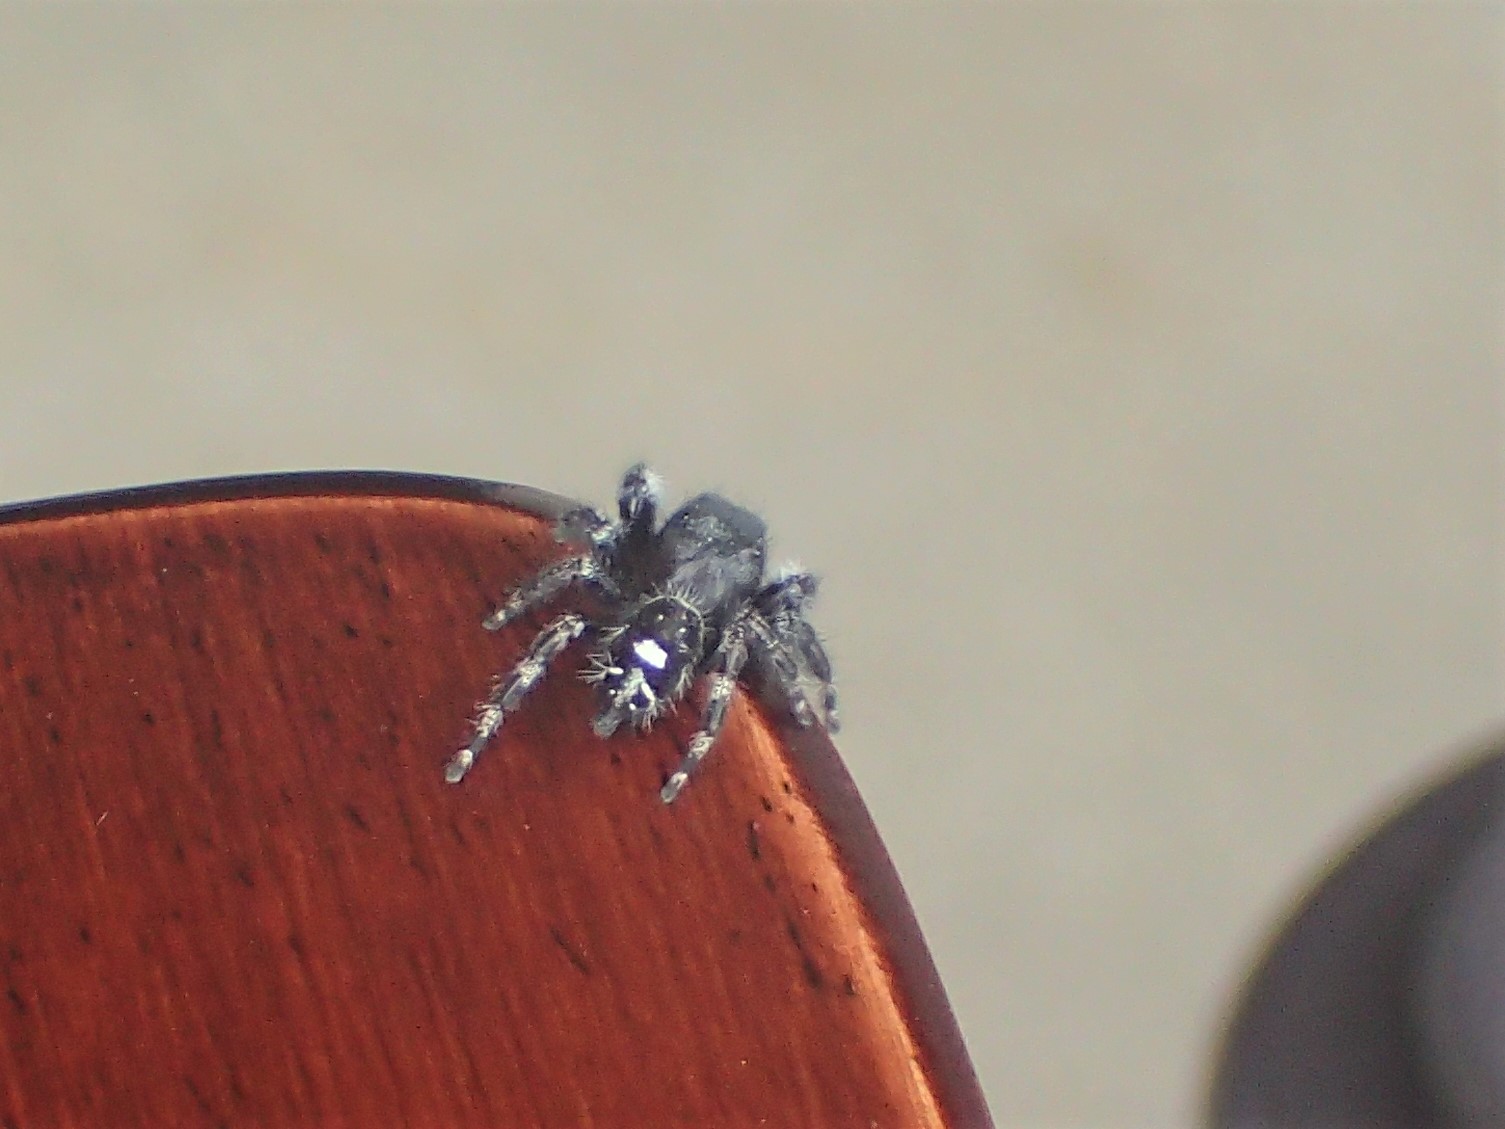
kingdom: Animalia
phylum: Arthropoda
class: Arachnida
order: Araneae
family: Salticidae
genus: Phidippus
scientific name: Phidippus audax
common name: Bold jumper
